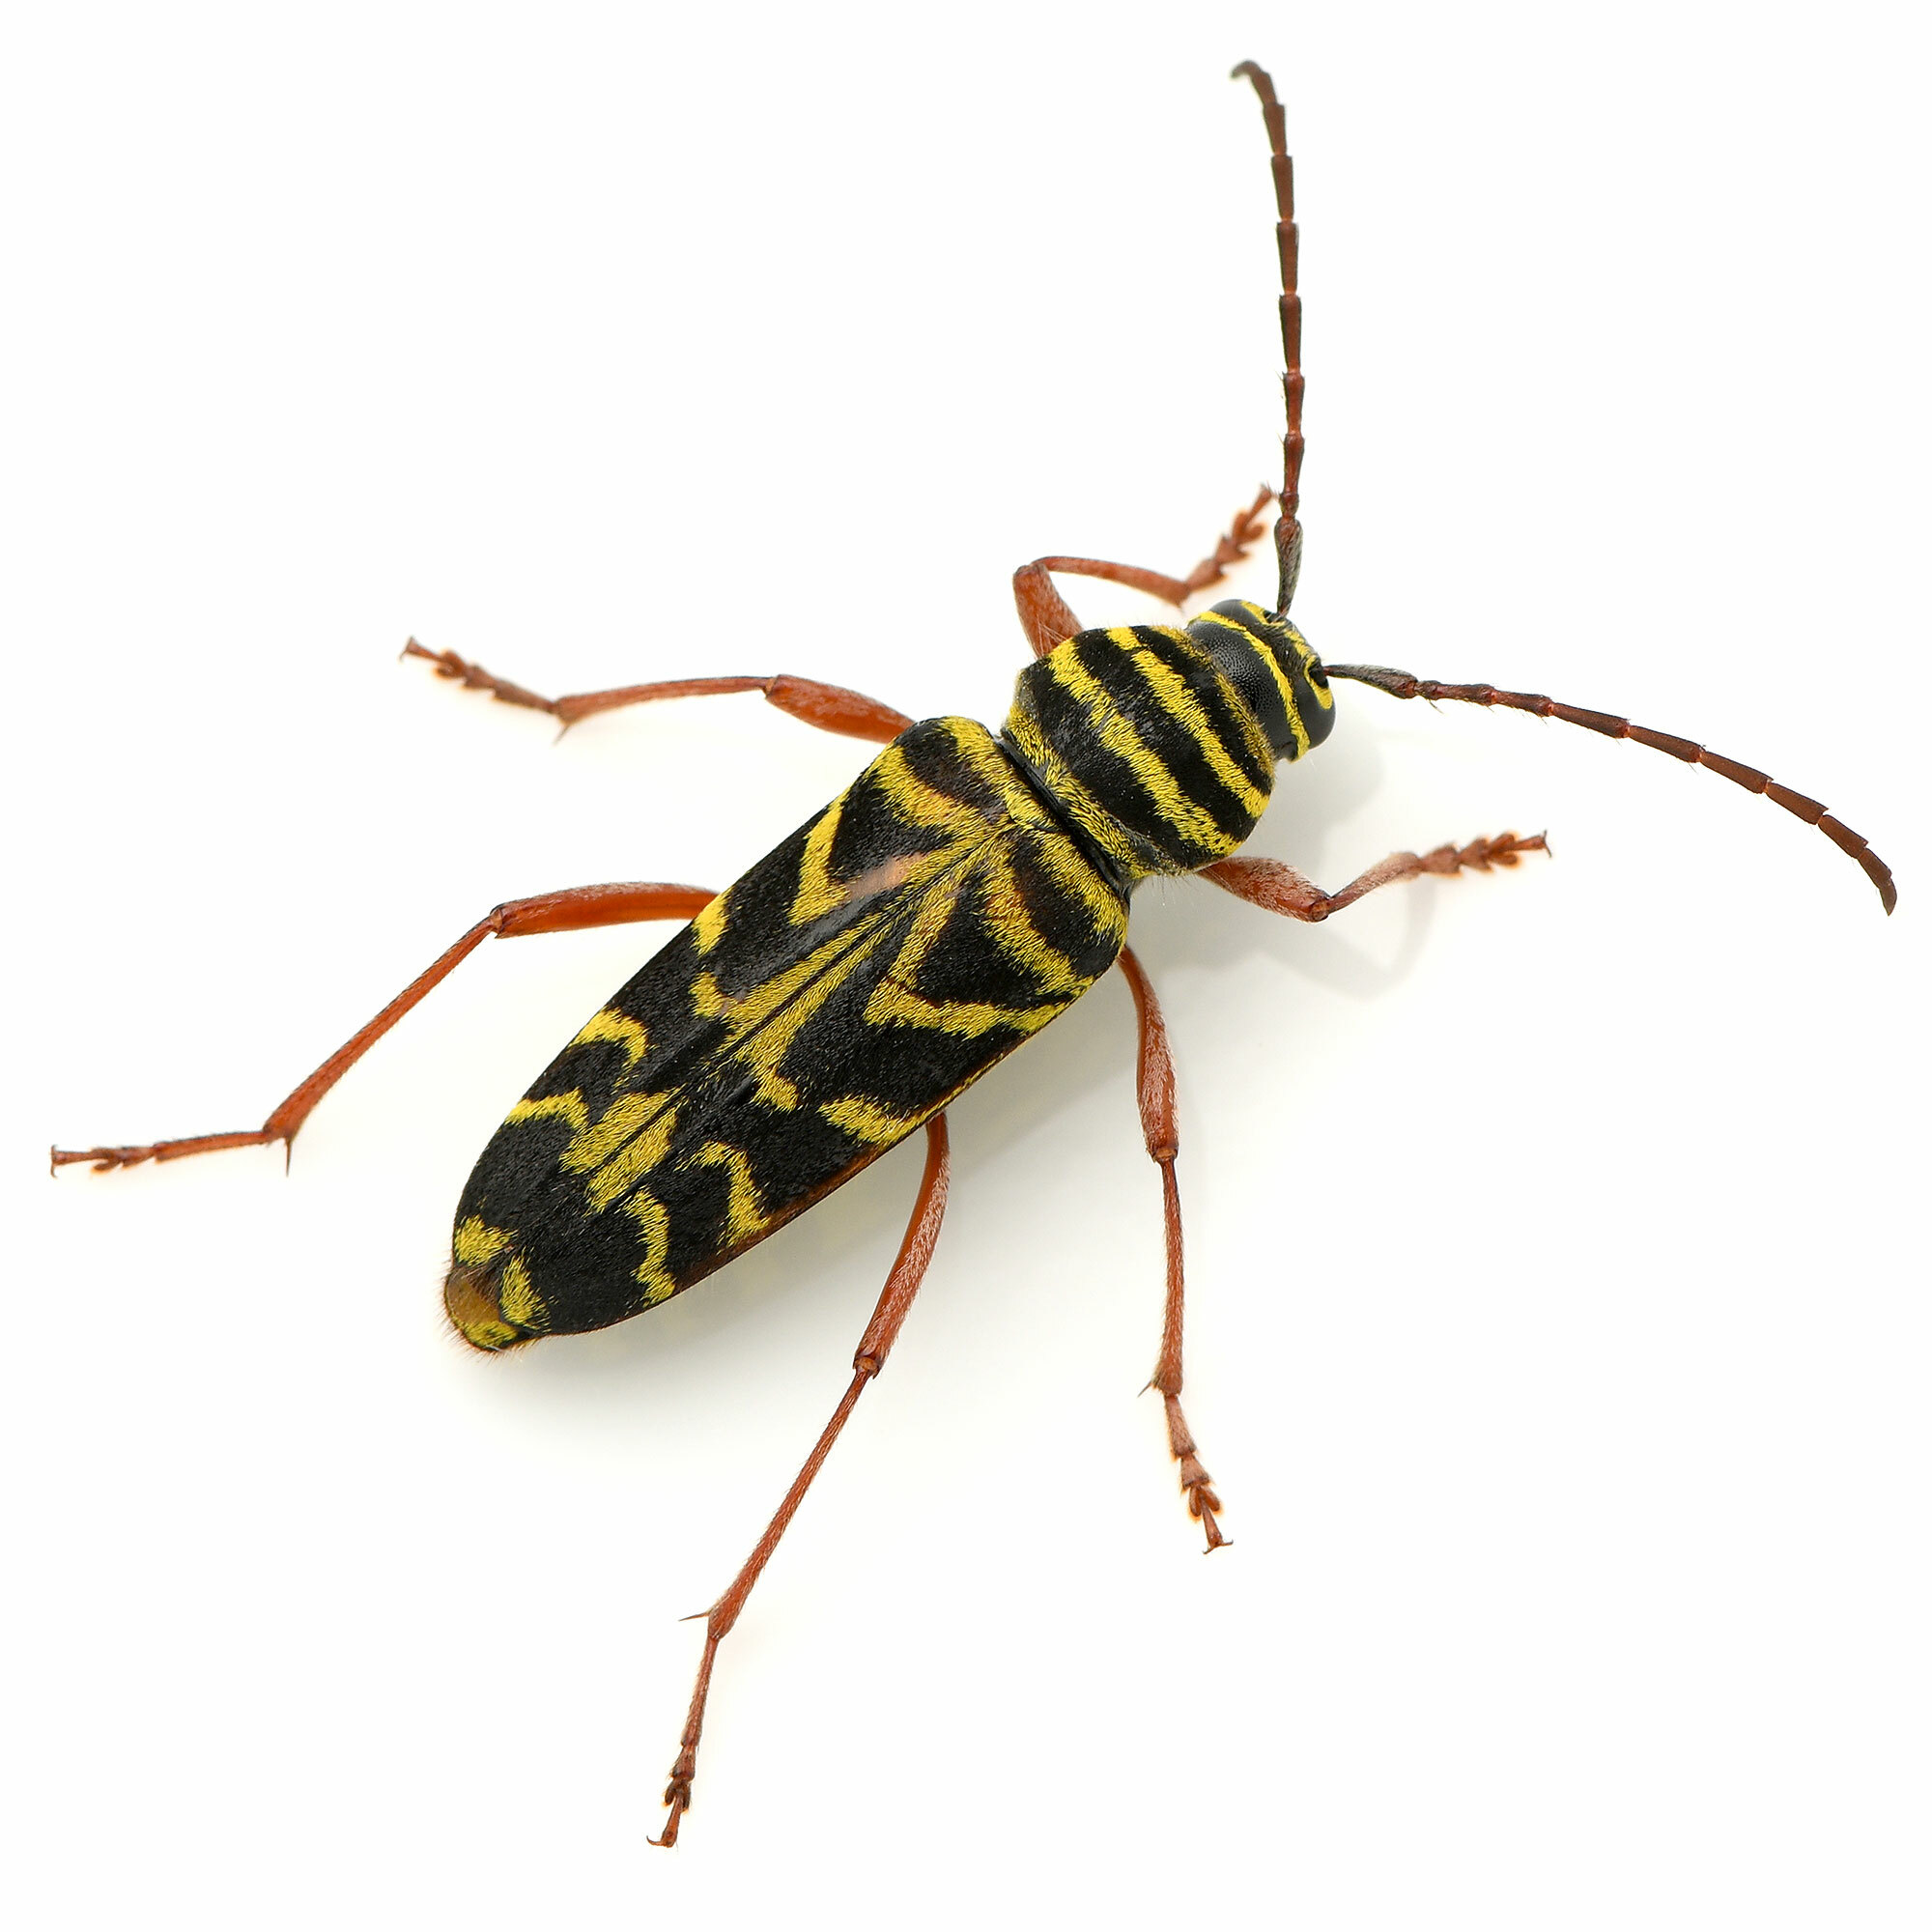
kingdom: Animalia
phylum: Arthropoda
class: Insecta
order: Coleoptera
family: Cerambycidae
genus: Megacyllene
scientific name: Megacyllene robiniae
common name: Locust borer
